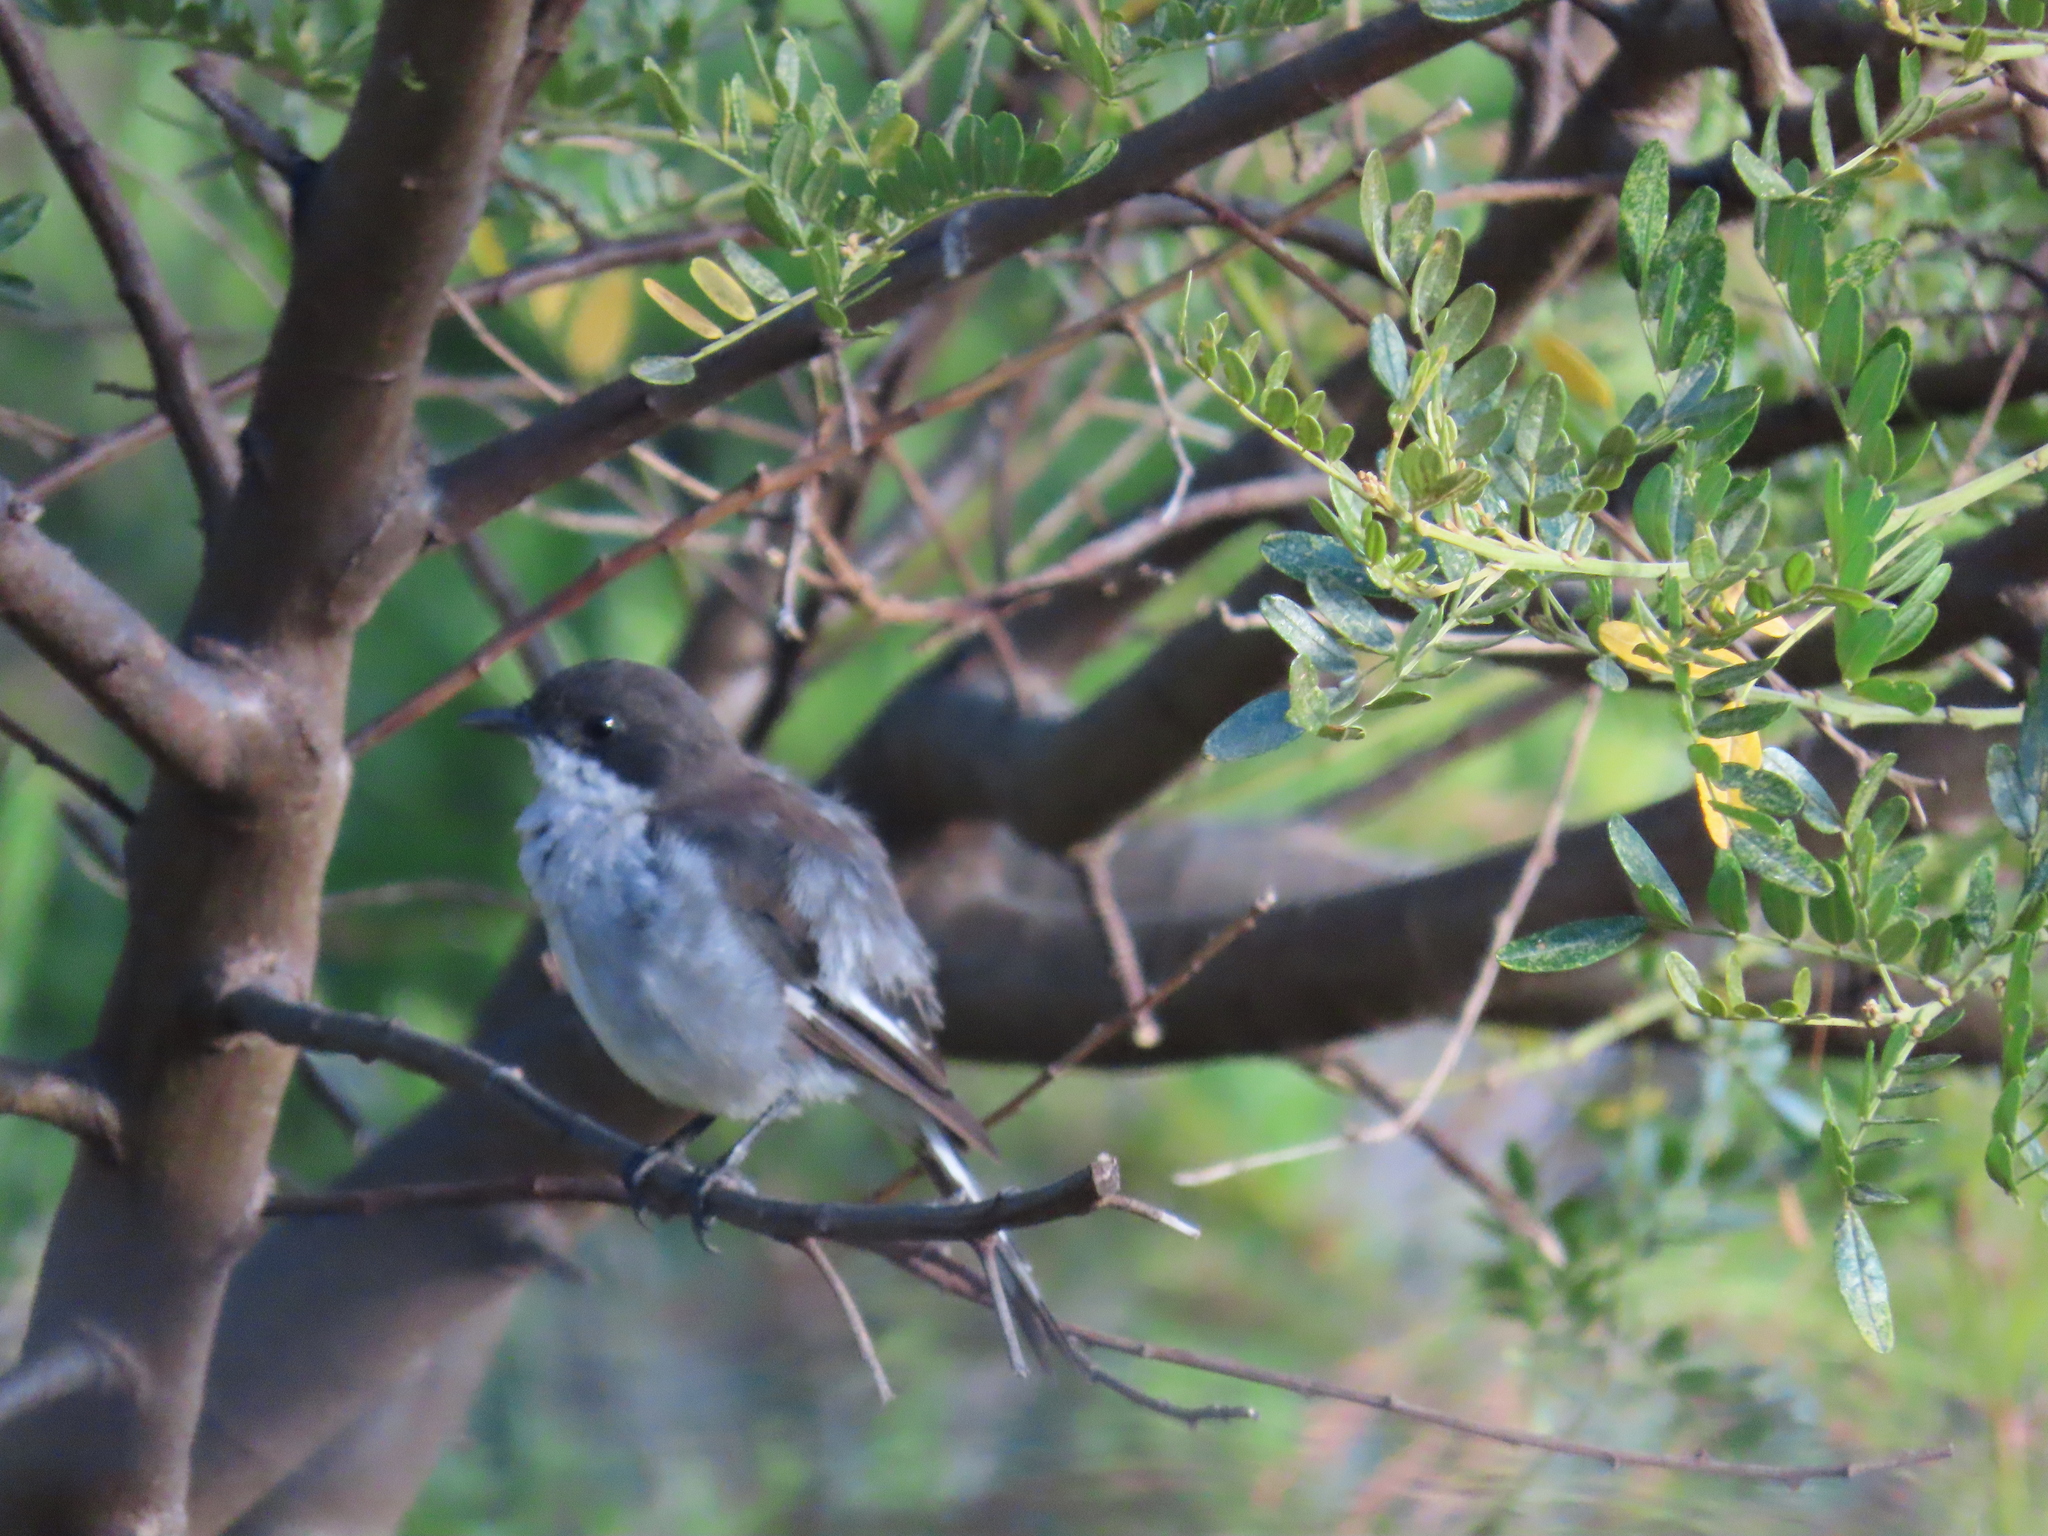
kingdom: Animalia
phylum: Chordata
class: Aves
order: Passeriformes
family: Muscicapidae
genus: Sigelus
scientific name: Sigelus silens
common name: Fiscal flycatcher
